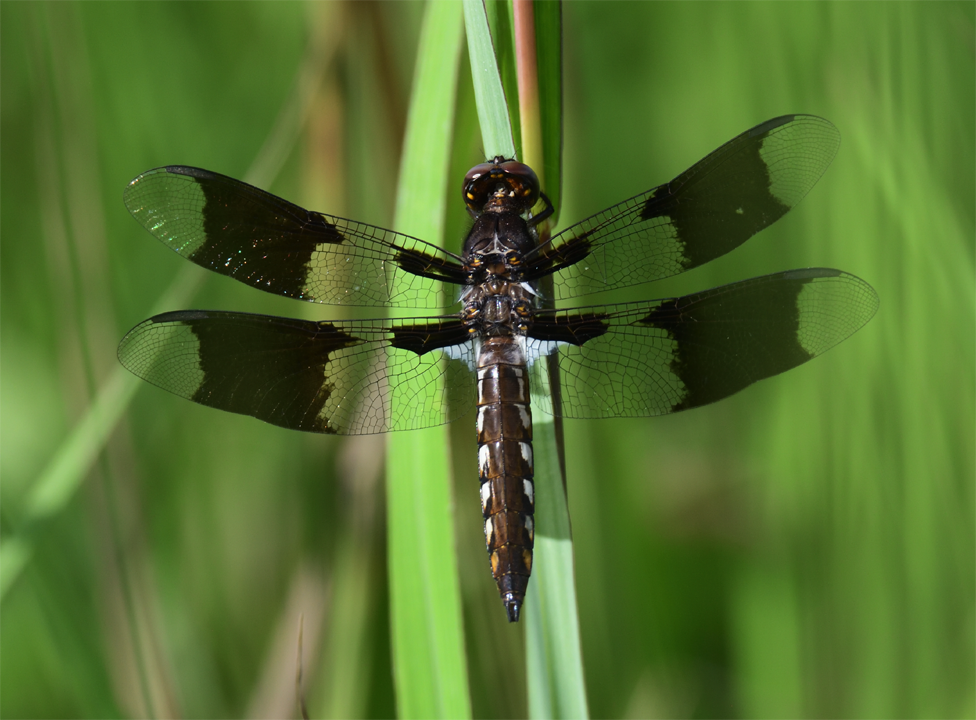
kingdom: Animalia
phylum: Arthropoda
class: Insecta
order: Odonata
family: Libellulidae
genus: Plathemis
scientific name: Plathemis lydia
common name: Common whitetail
